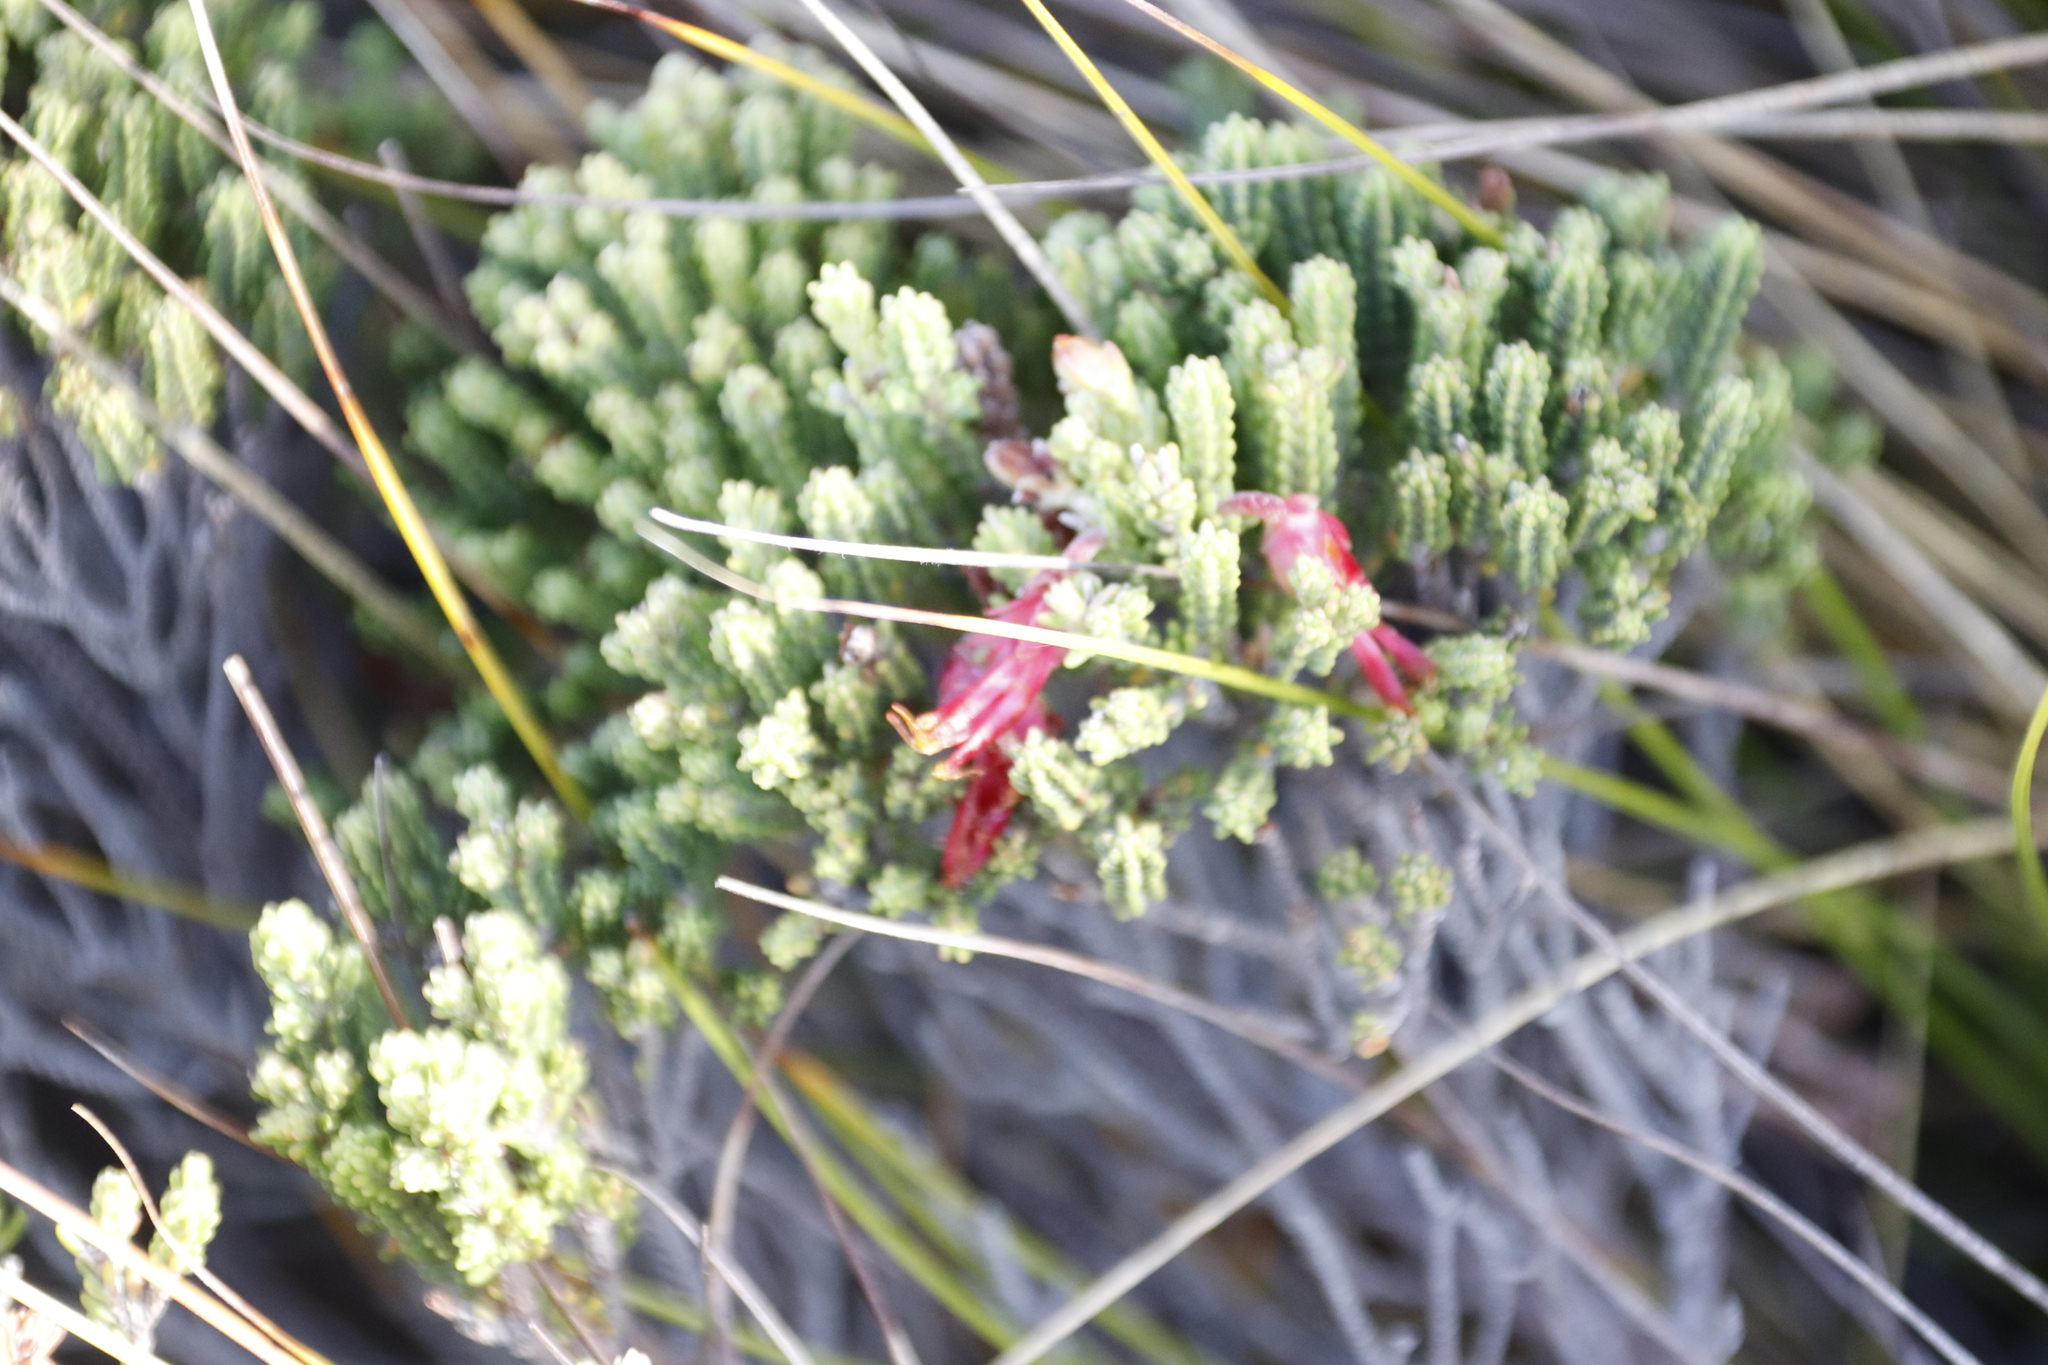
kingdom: Plantae
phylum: Tracheophyta
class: Magnoliopsida
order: Ericales
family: Ericaceae
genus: Erica
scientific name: Erica monadelphia
